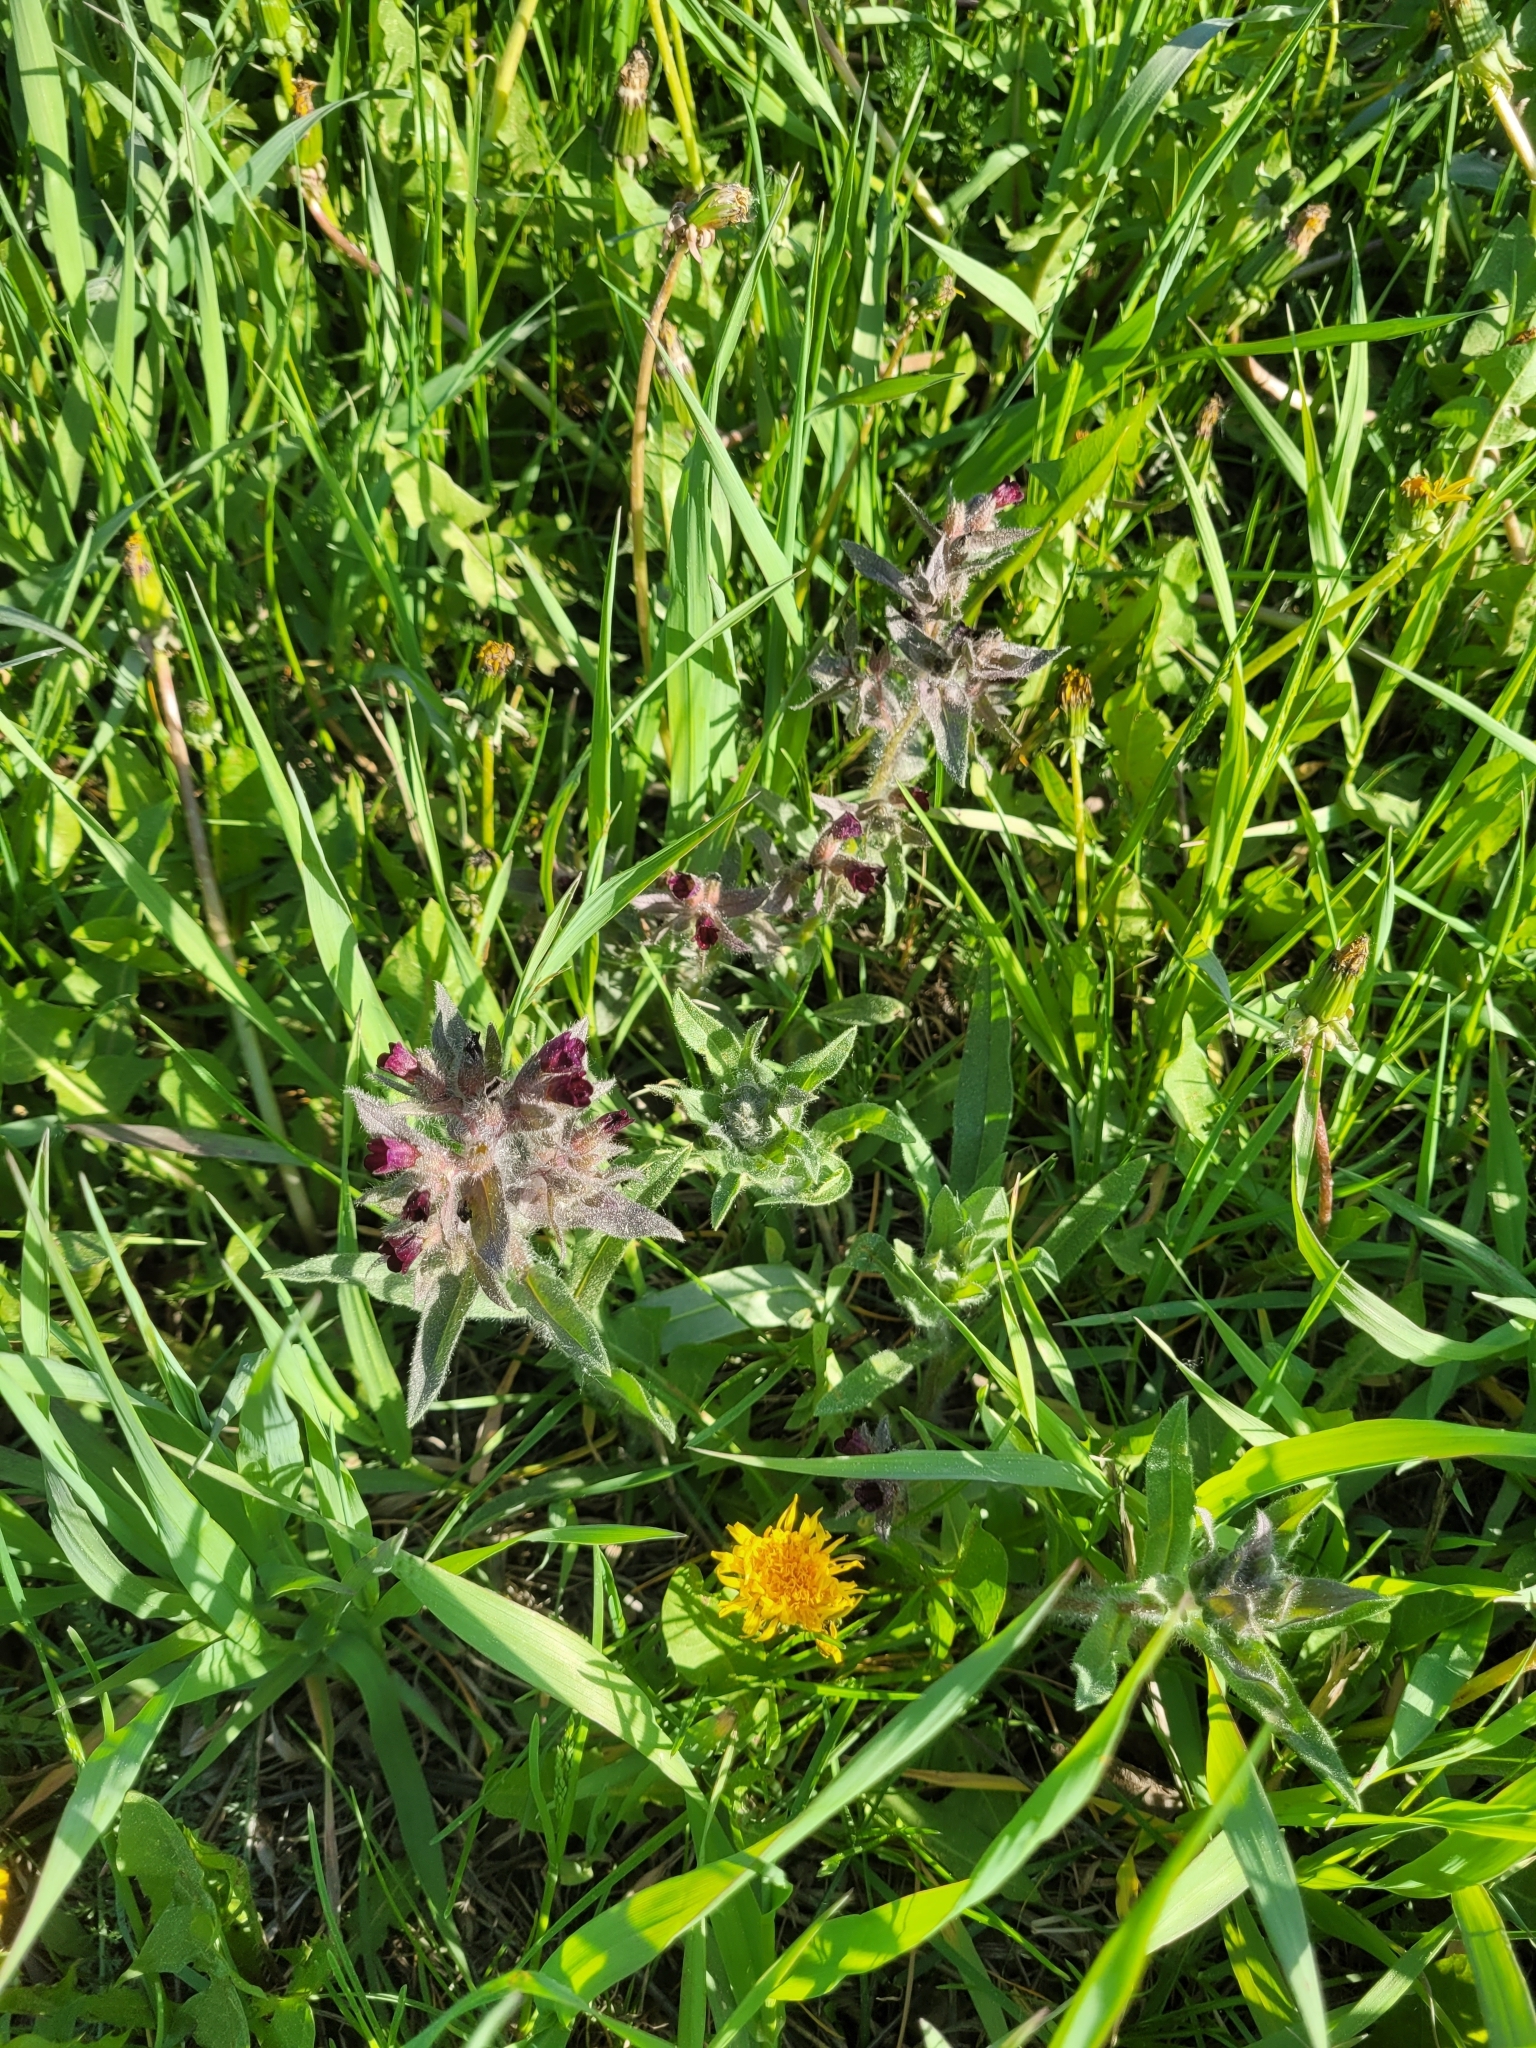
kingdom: Plantae
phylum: Tracheophyta
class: Magnoliopsida
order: Boraginales
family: Boraginaceae
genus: Nonea
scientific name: Nonea pulla
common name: Brown nonea
